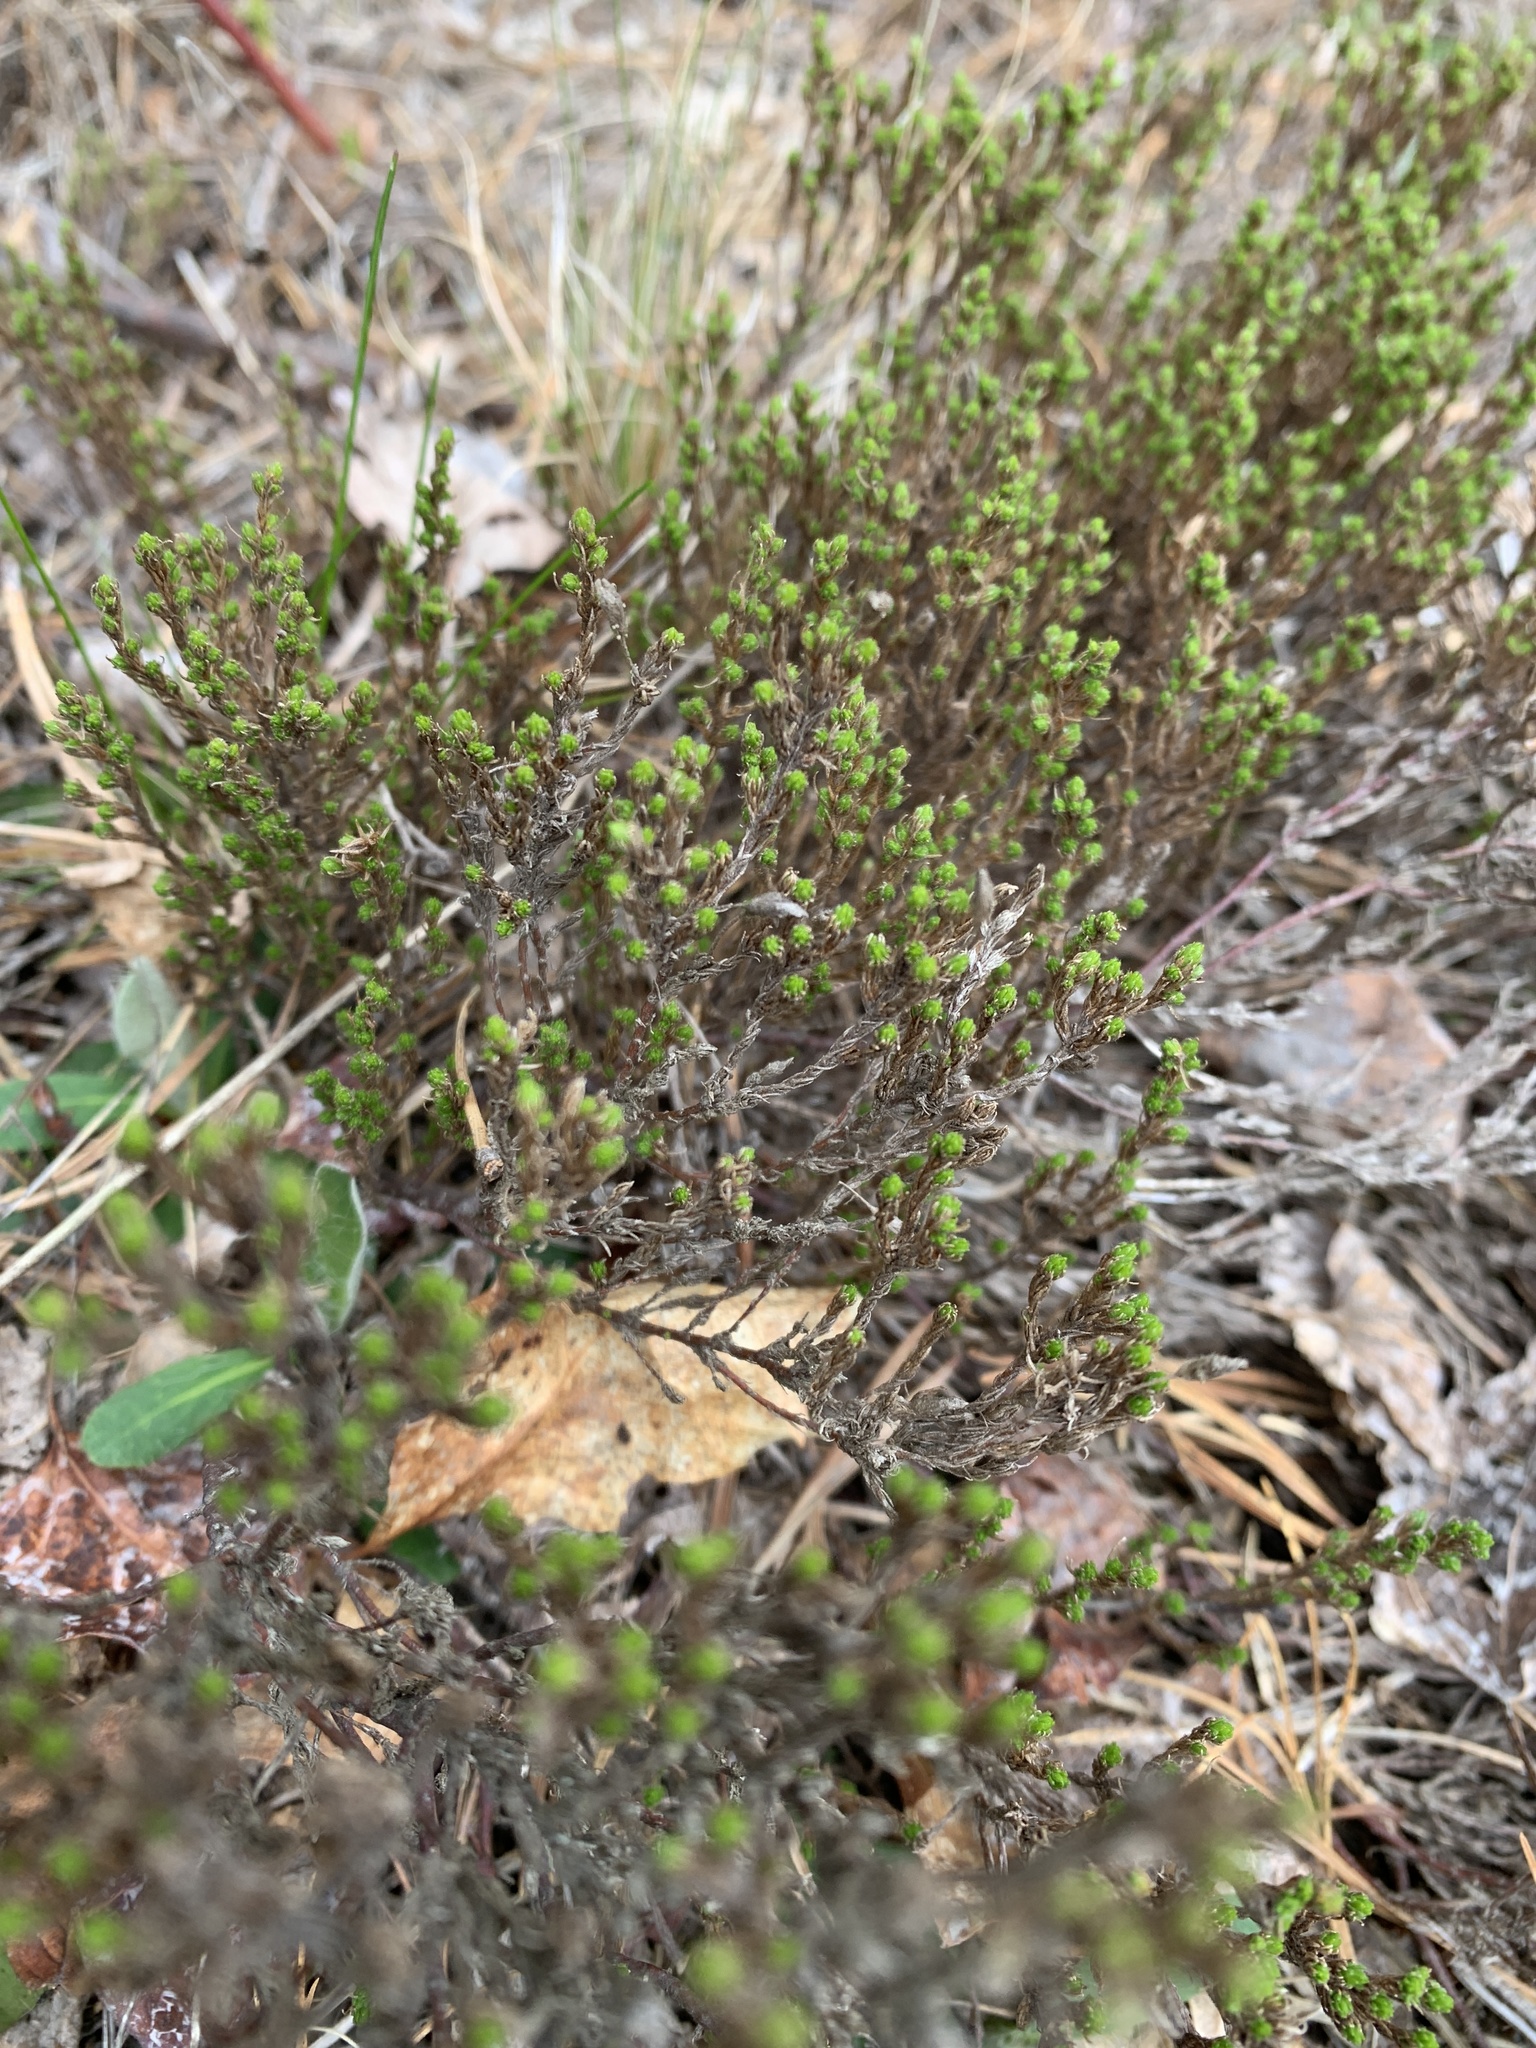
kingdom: Plantae
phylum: Tracheophyta
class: Magnoliopsida
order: Malvales
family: Cistaceae
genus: Hudsonia
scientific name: Hudsonia ericoides
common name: Golden-heather
